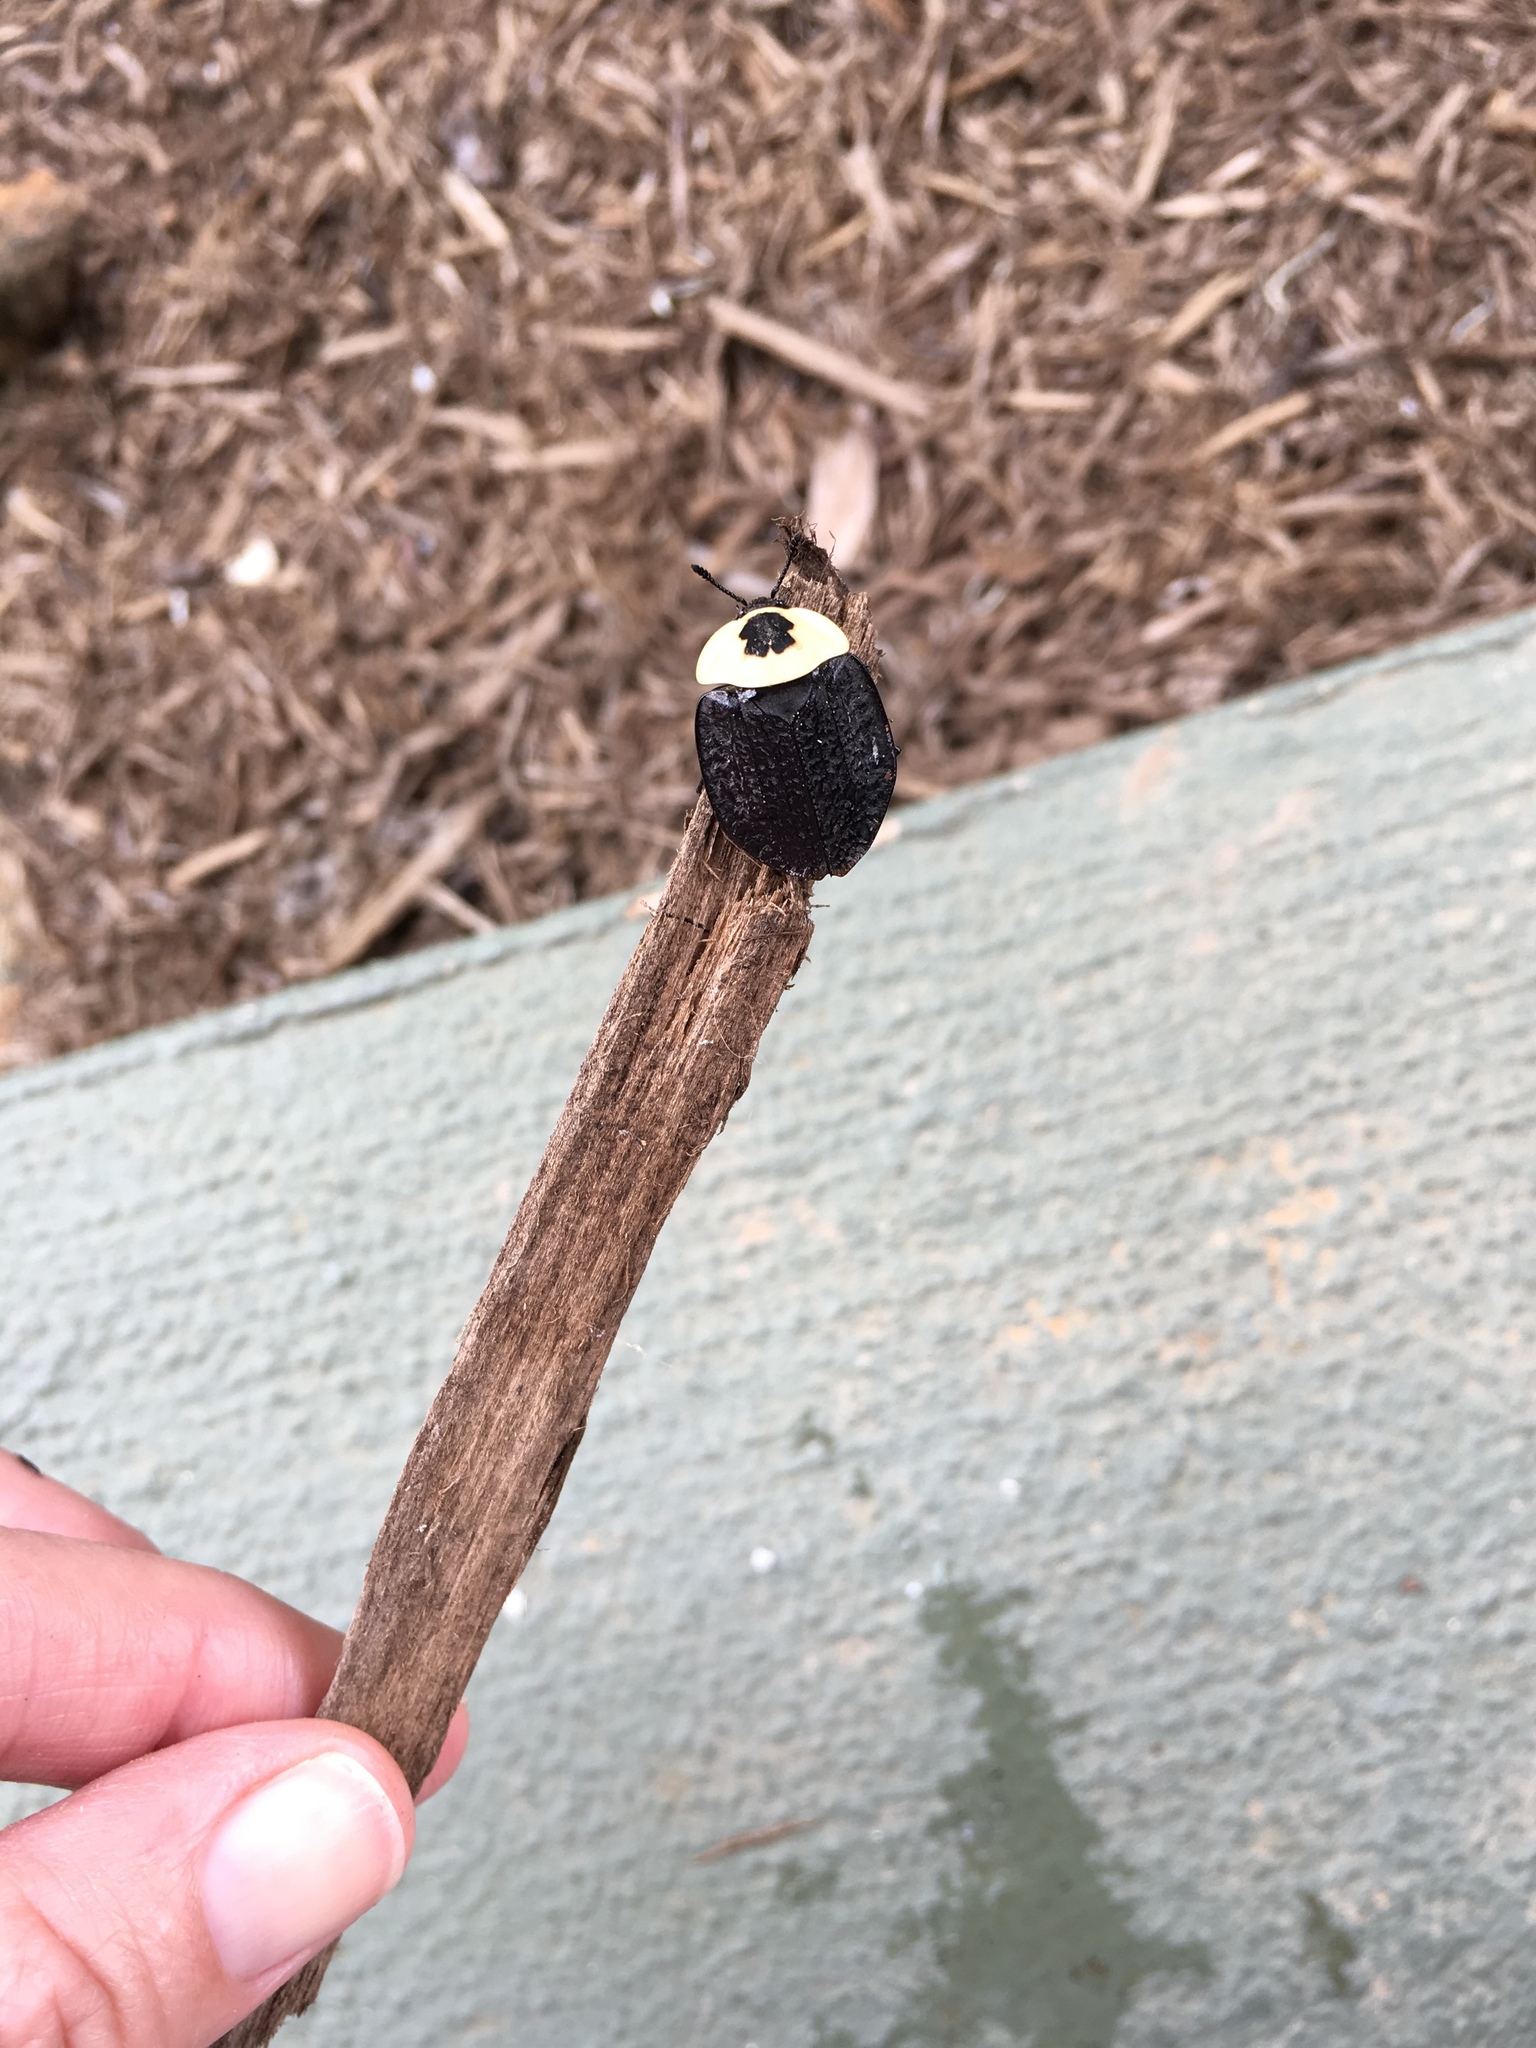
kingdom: Animalia
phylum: Arthropoda
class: Insecta
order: Coleoptera
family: Staphylinidae
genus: Necrophila
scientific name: Necrophila americana
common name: American carrion beetle
